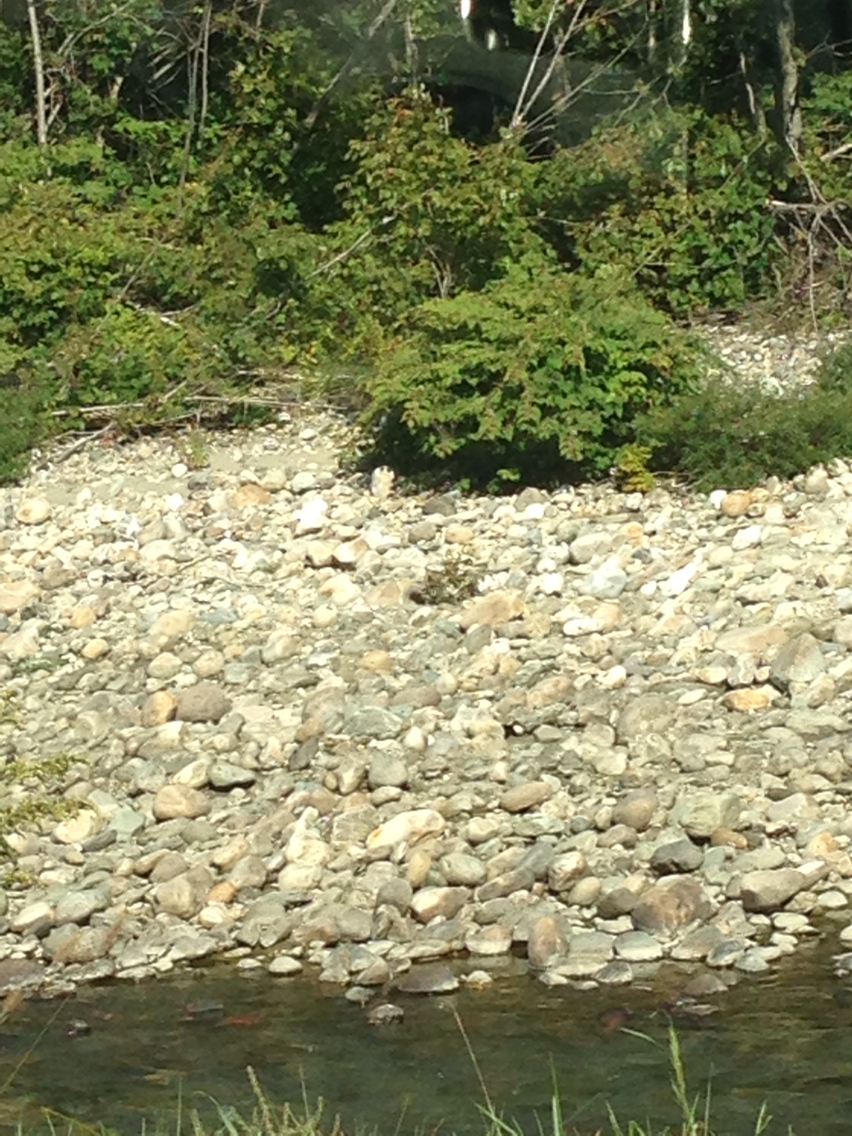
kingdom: Plantae
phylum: Tracheophyta
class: Magnoliopsida
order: Caryophyllales
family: Polygonaceae
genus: Reynoutria
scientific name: Reynoutria japonica
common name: Japanese knotweed
